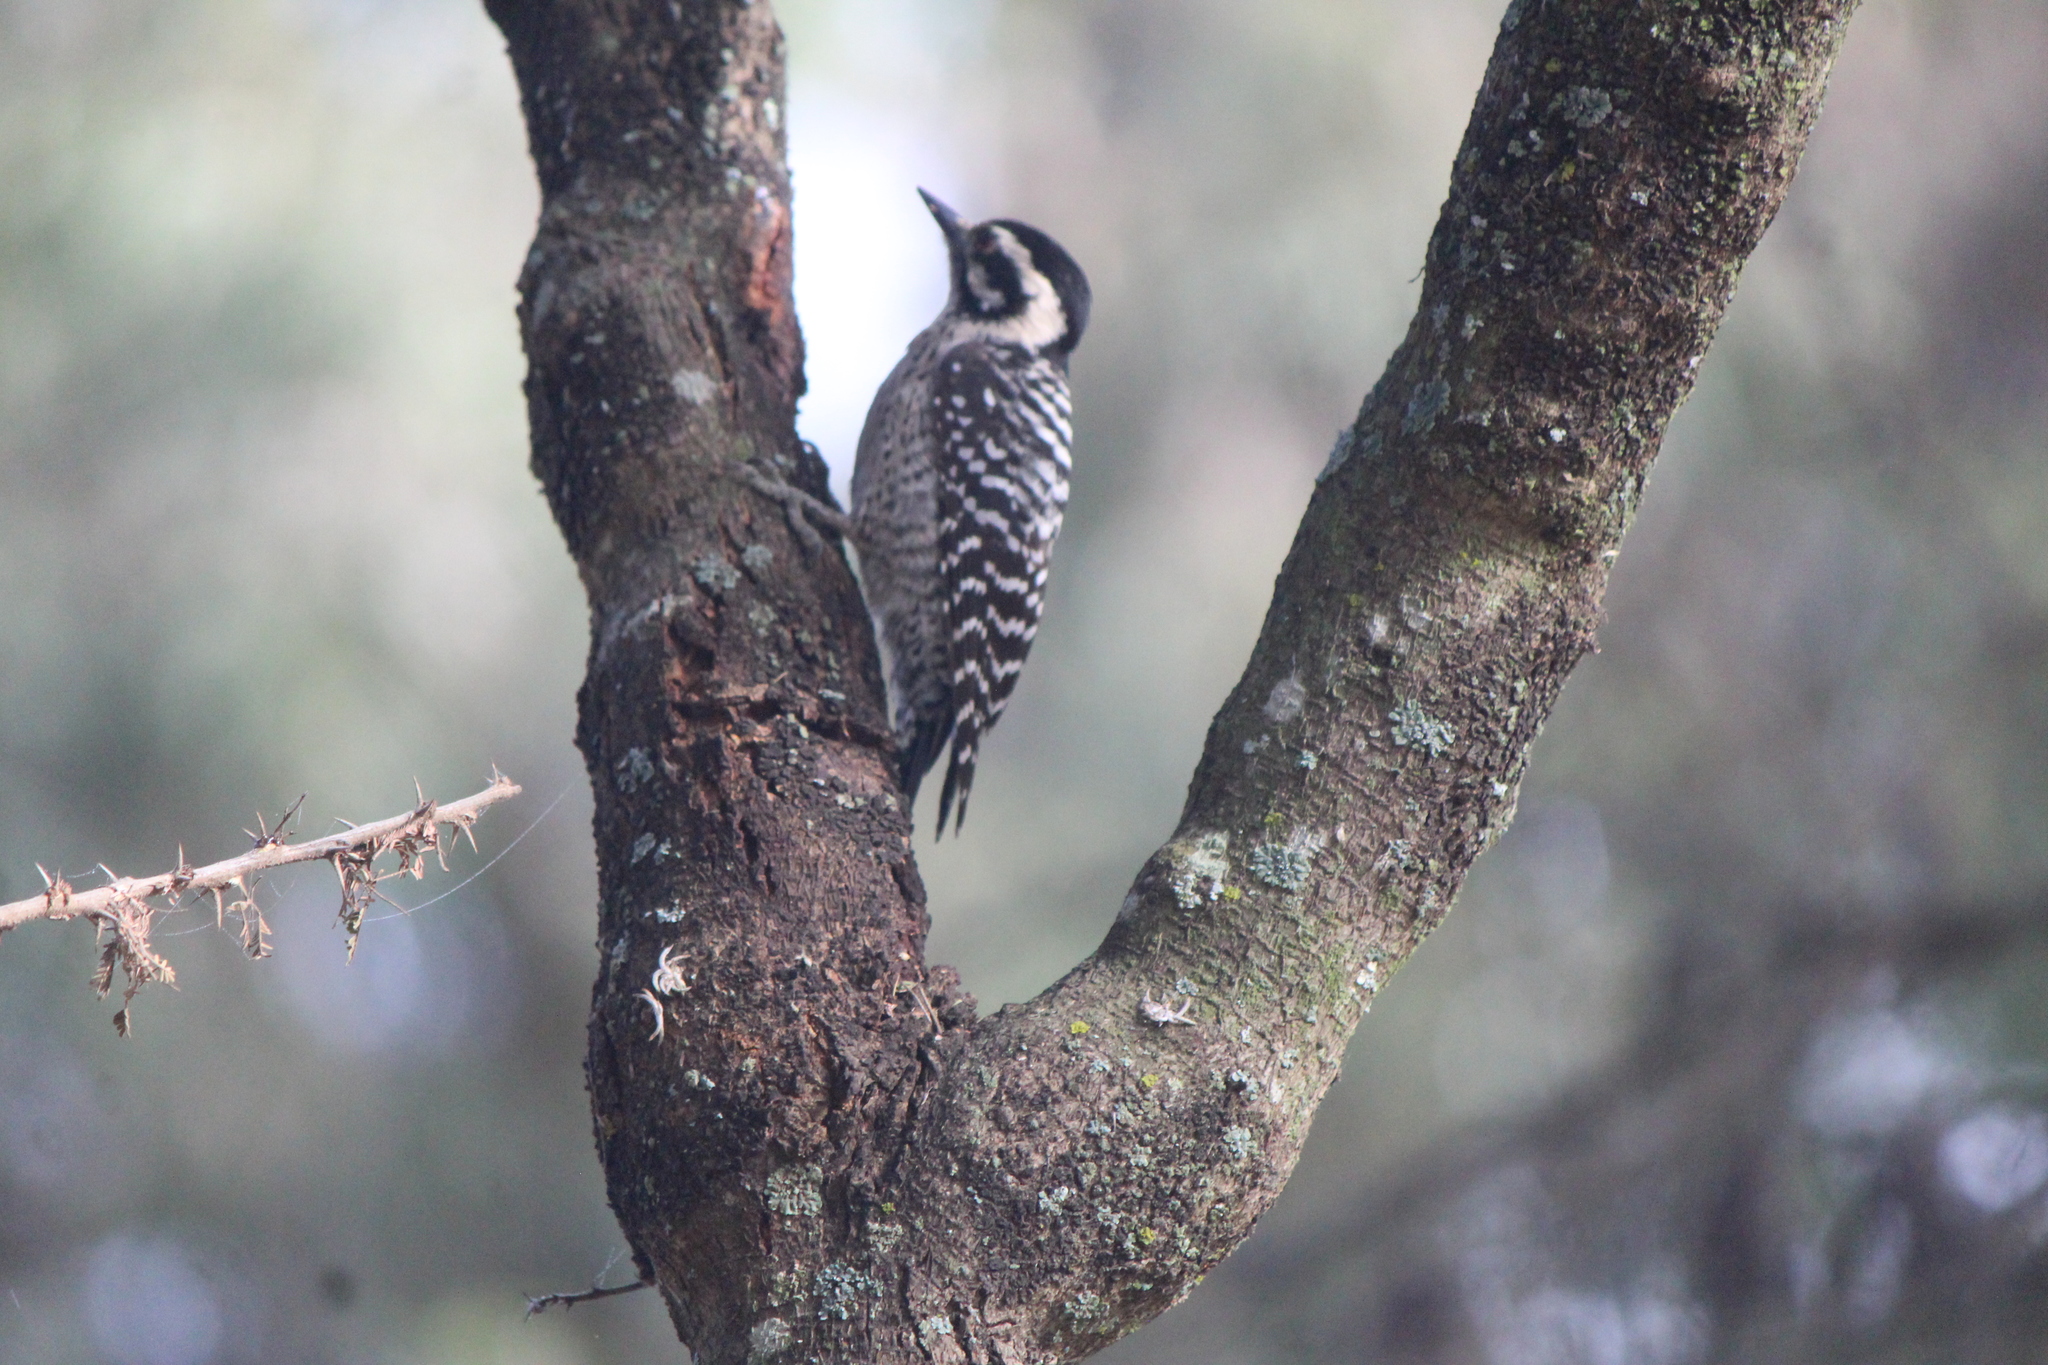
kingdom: Animalia
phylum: Chordata
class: Aves
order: Piciformes
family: Picidae
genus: Dryobates
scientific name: Dryobates scalaris
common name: Ladder-backed woodpecker
